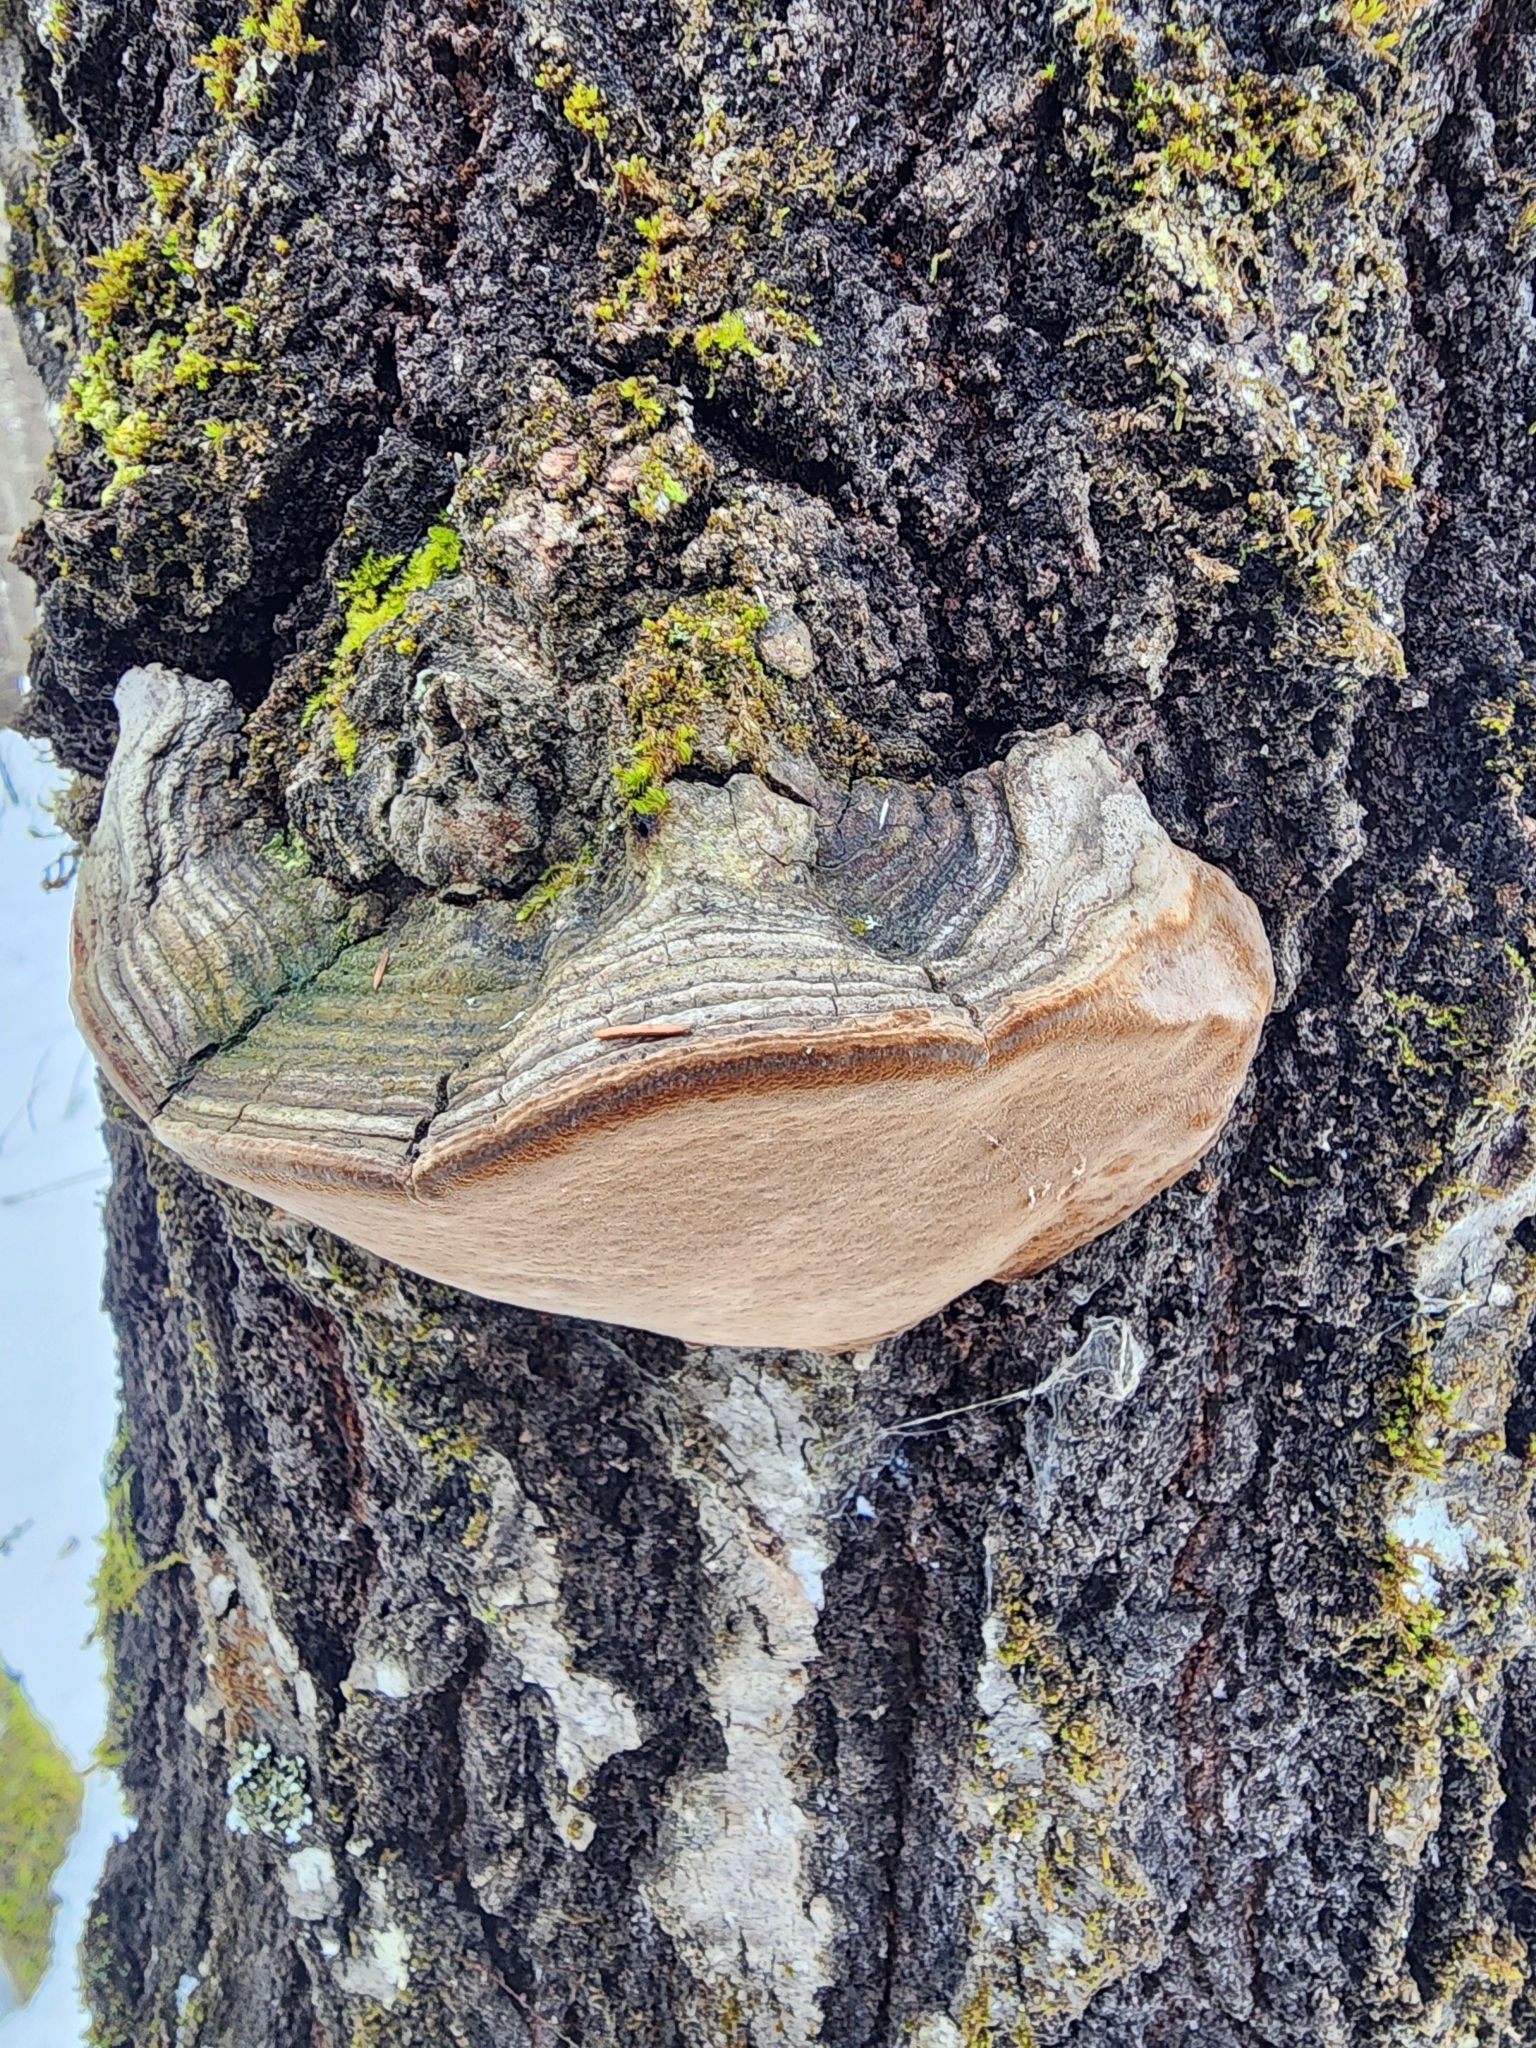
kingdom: Fungi
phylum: Basidiomycota
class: Agaricomycetes
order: Hymenochaetales
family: Hymenochaetaceae
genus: Phellinus
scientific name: Phellinus tremulae
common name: Aspen bracket
